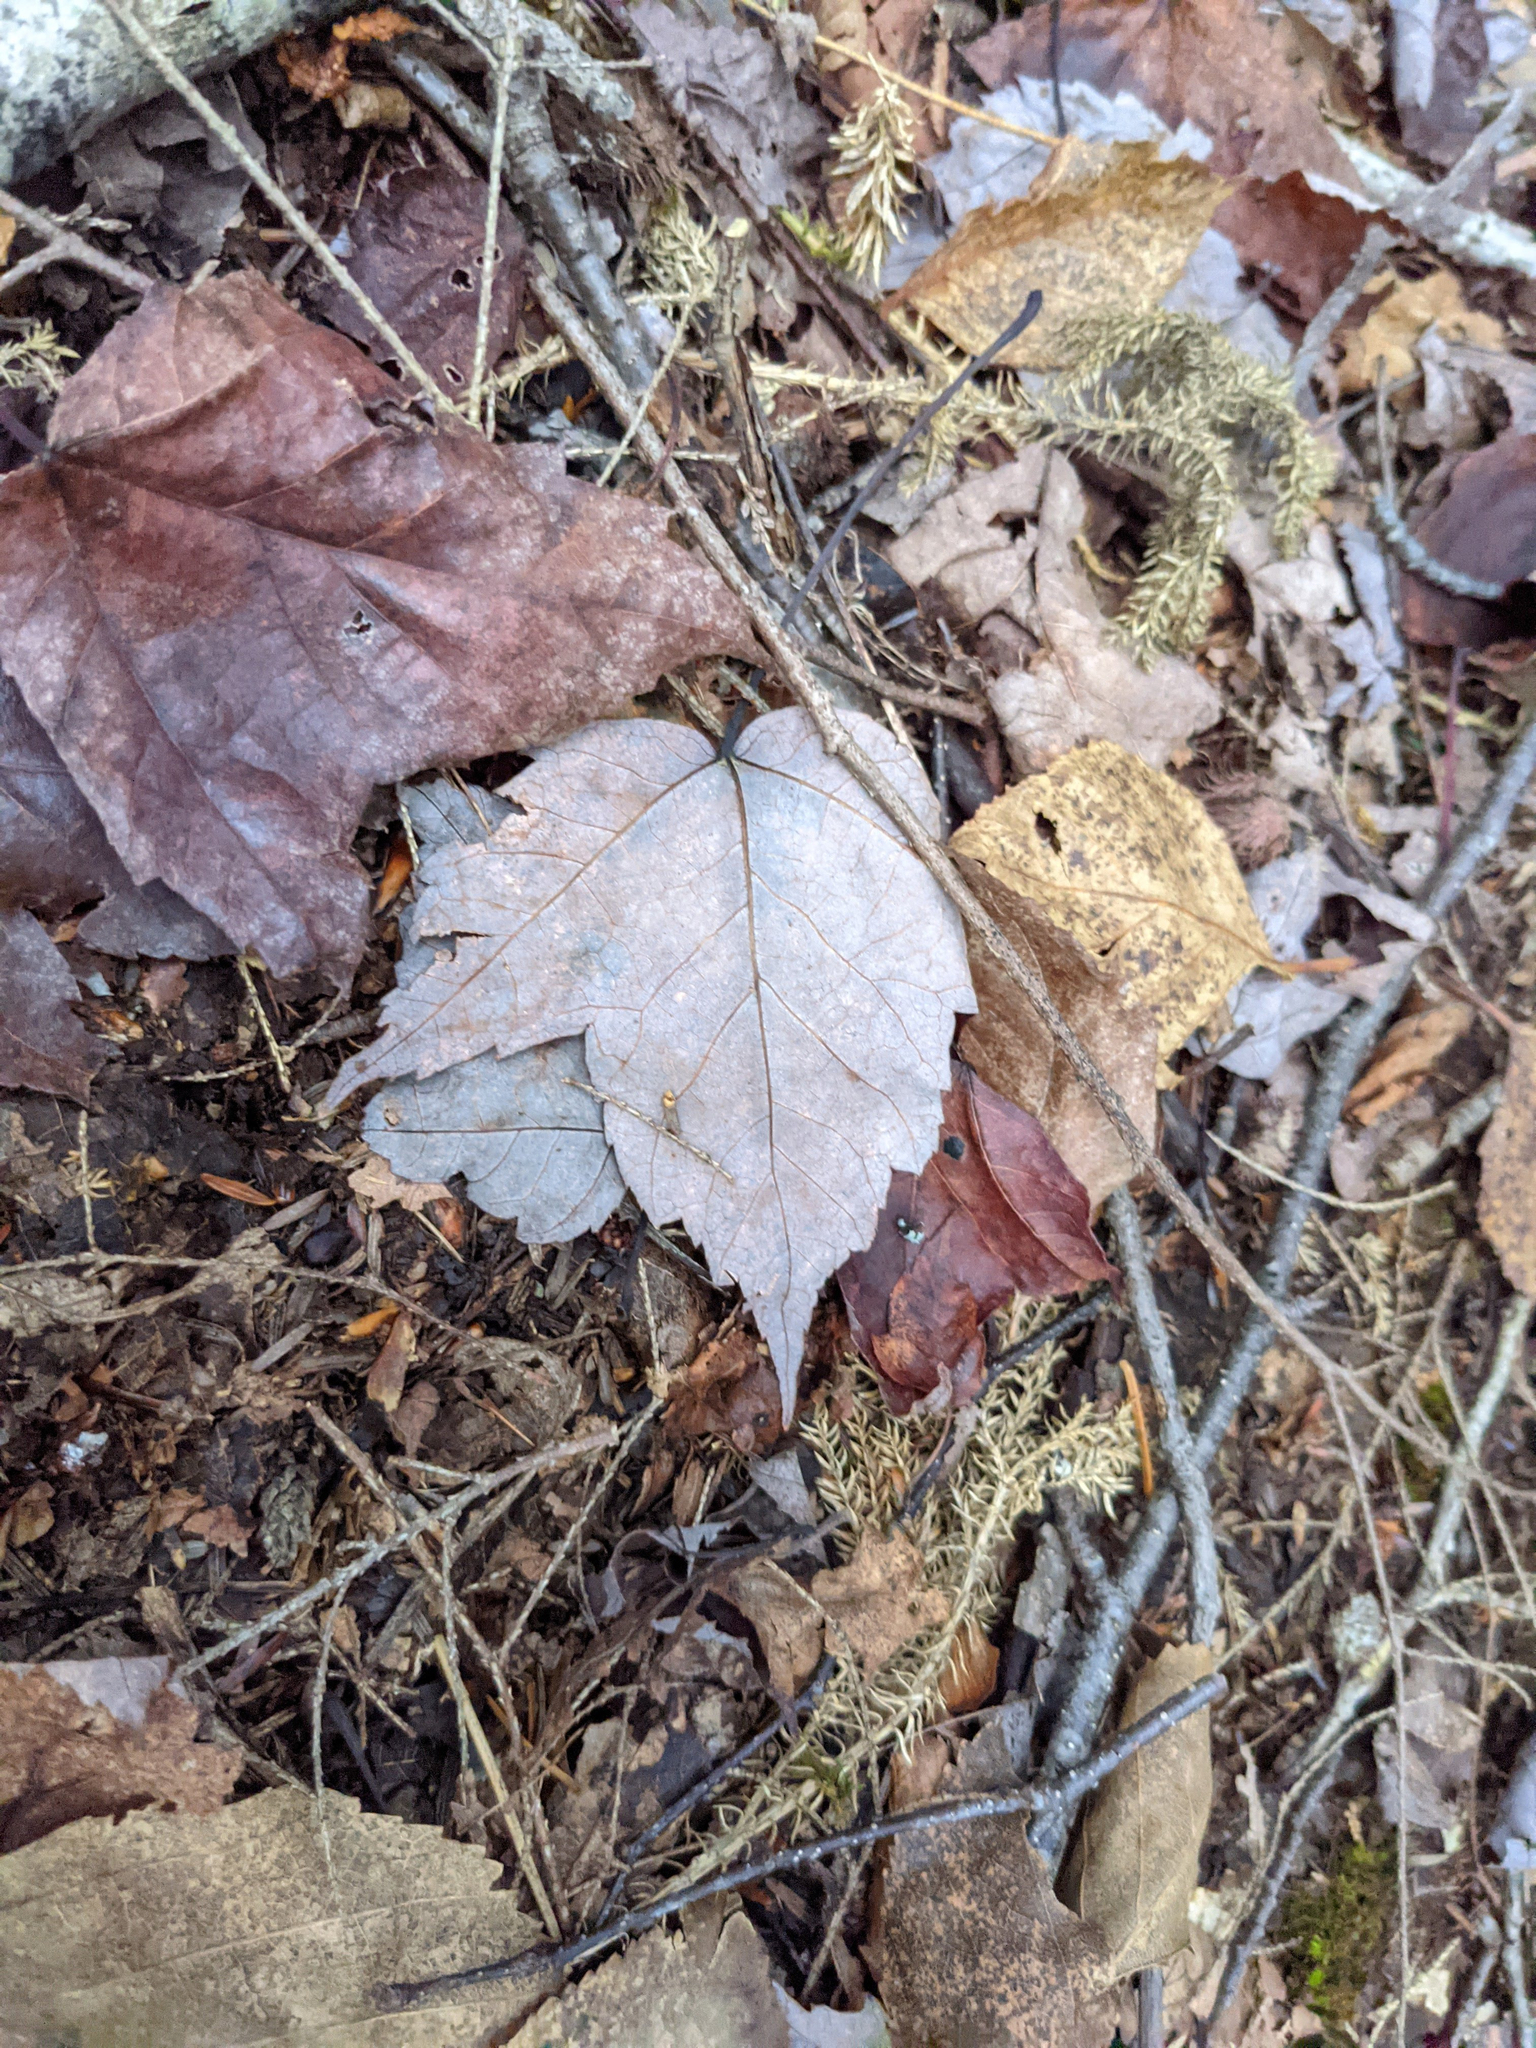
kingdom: Plantae
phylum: Tracheophyta
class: Magnoliopsida
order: Sapindales
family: Sapindaceae
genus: Acer
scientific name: Acer rubrum
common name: Red maple
